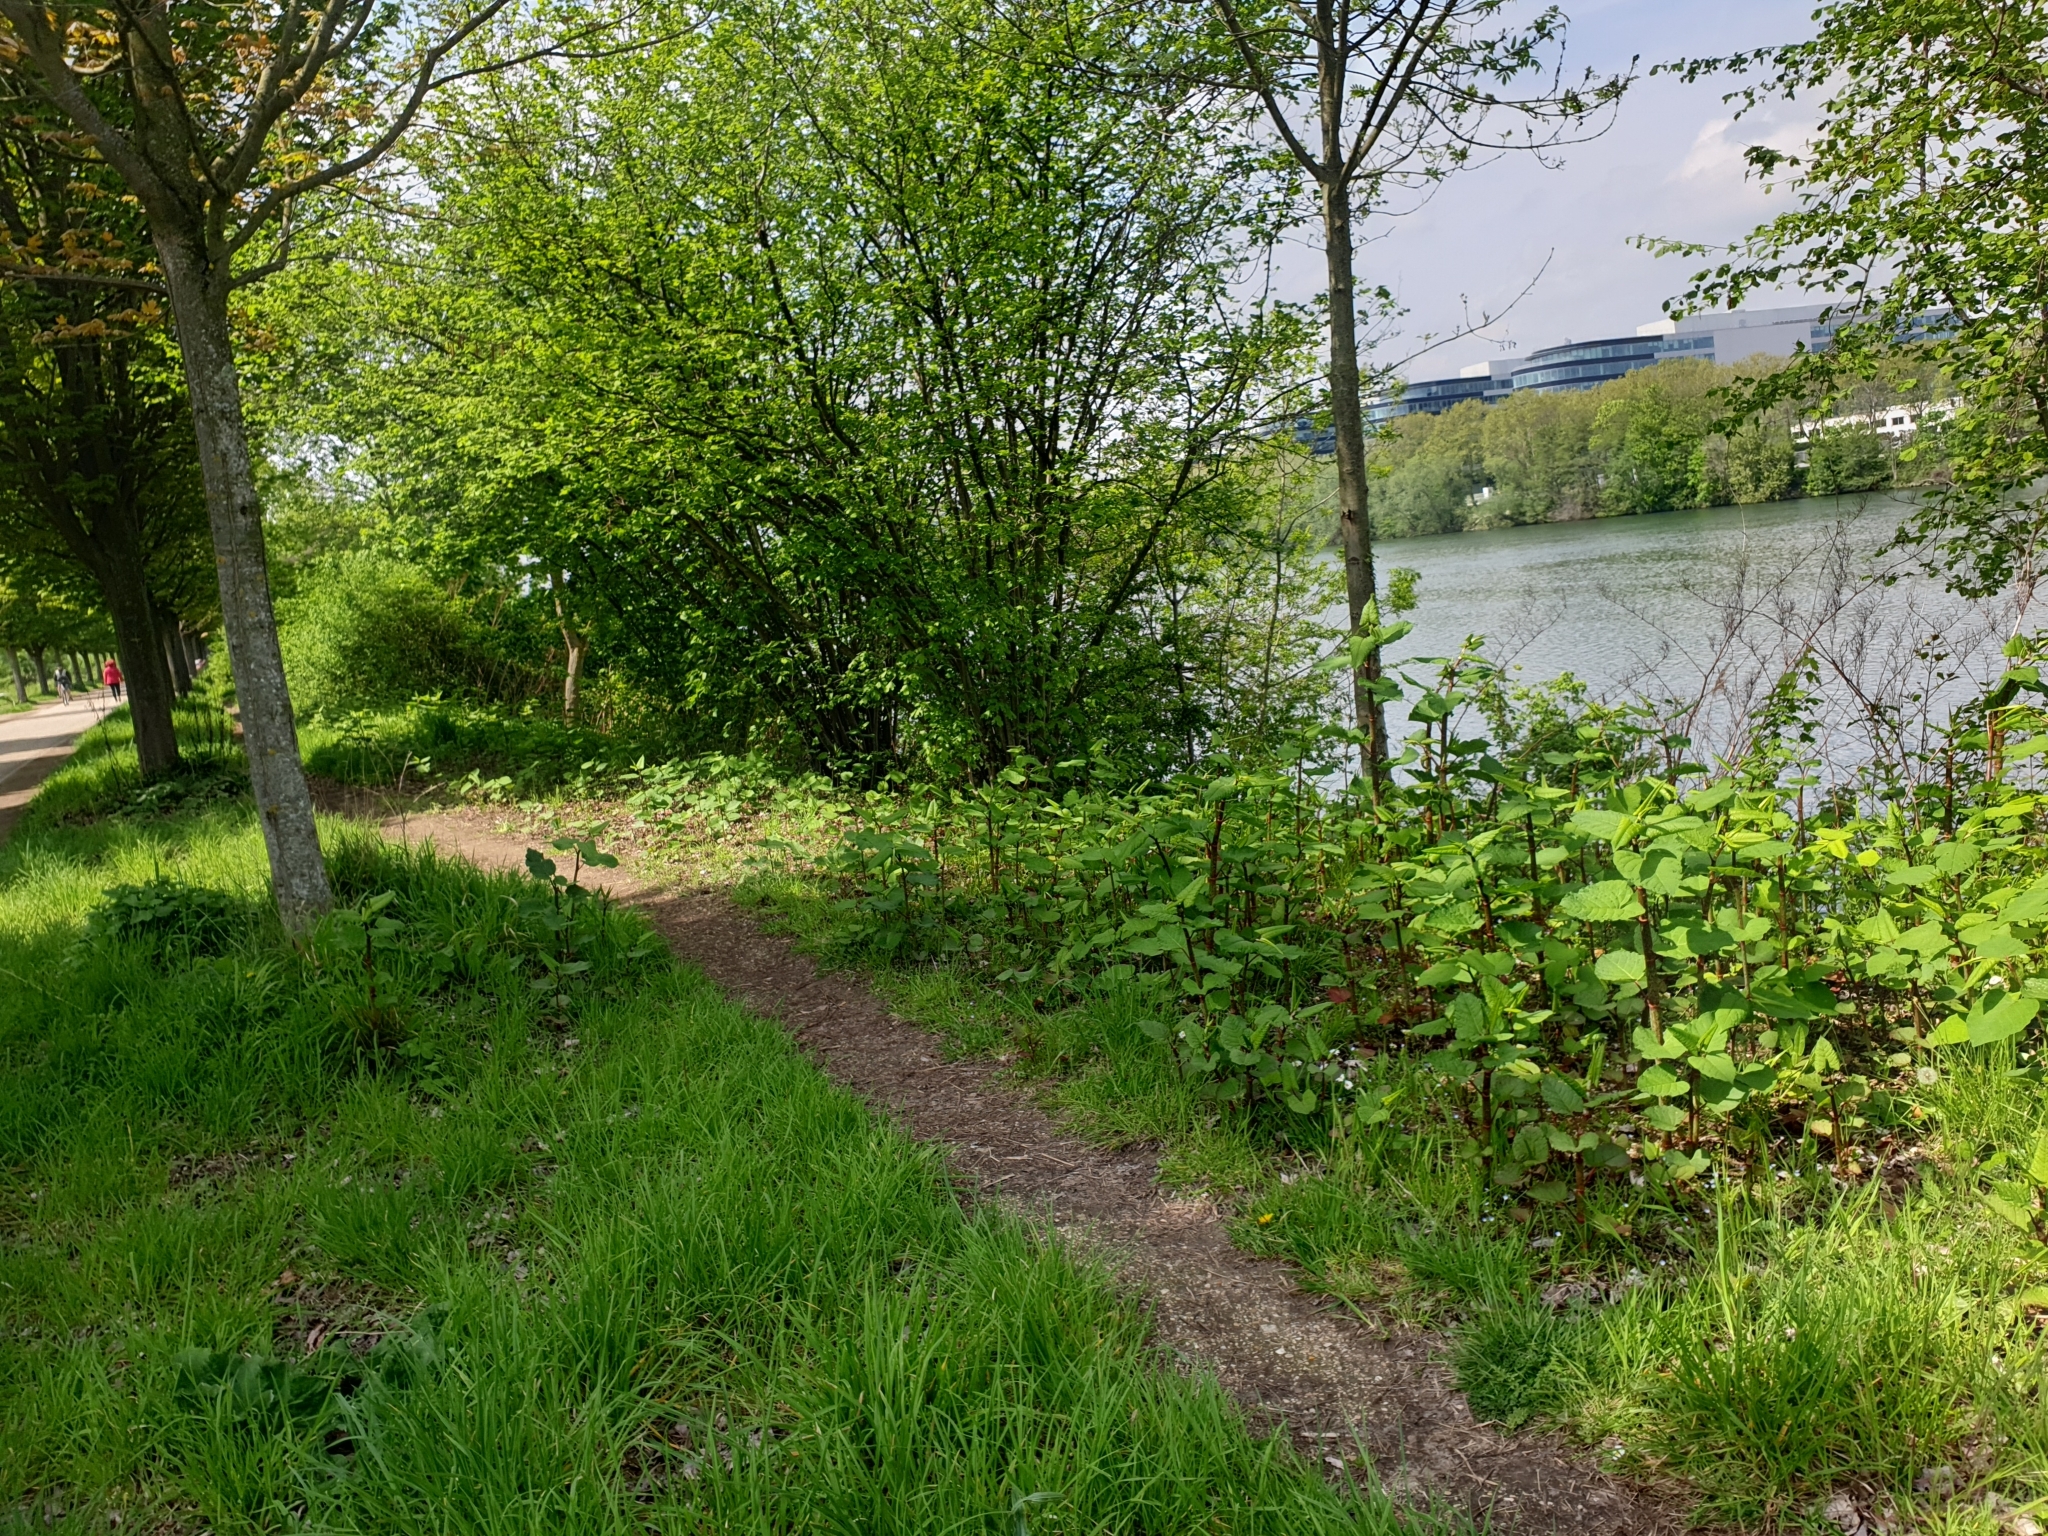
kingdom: Plantae
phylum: Tracheophyta
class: Magnoliopsida
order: Caryophyllales
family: Polygonaceae
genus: Reynoutria
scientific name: Reynoutria japonica
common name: Japanese knotweed
